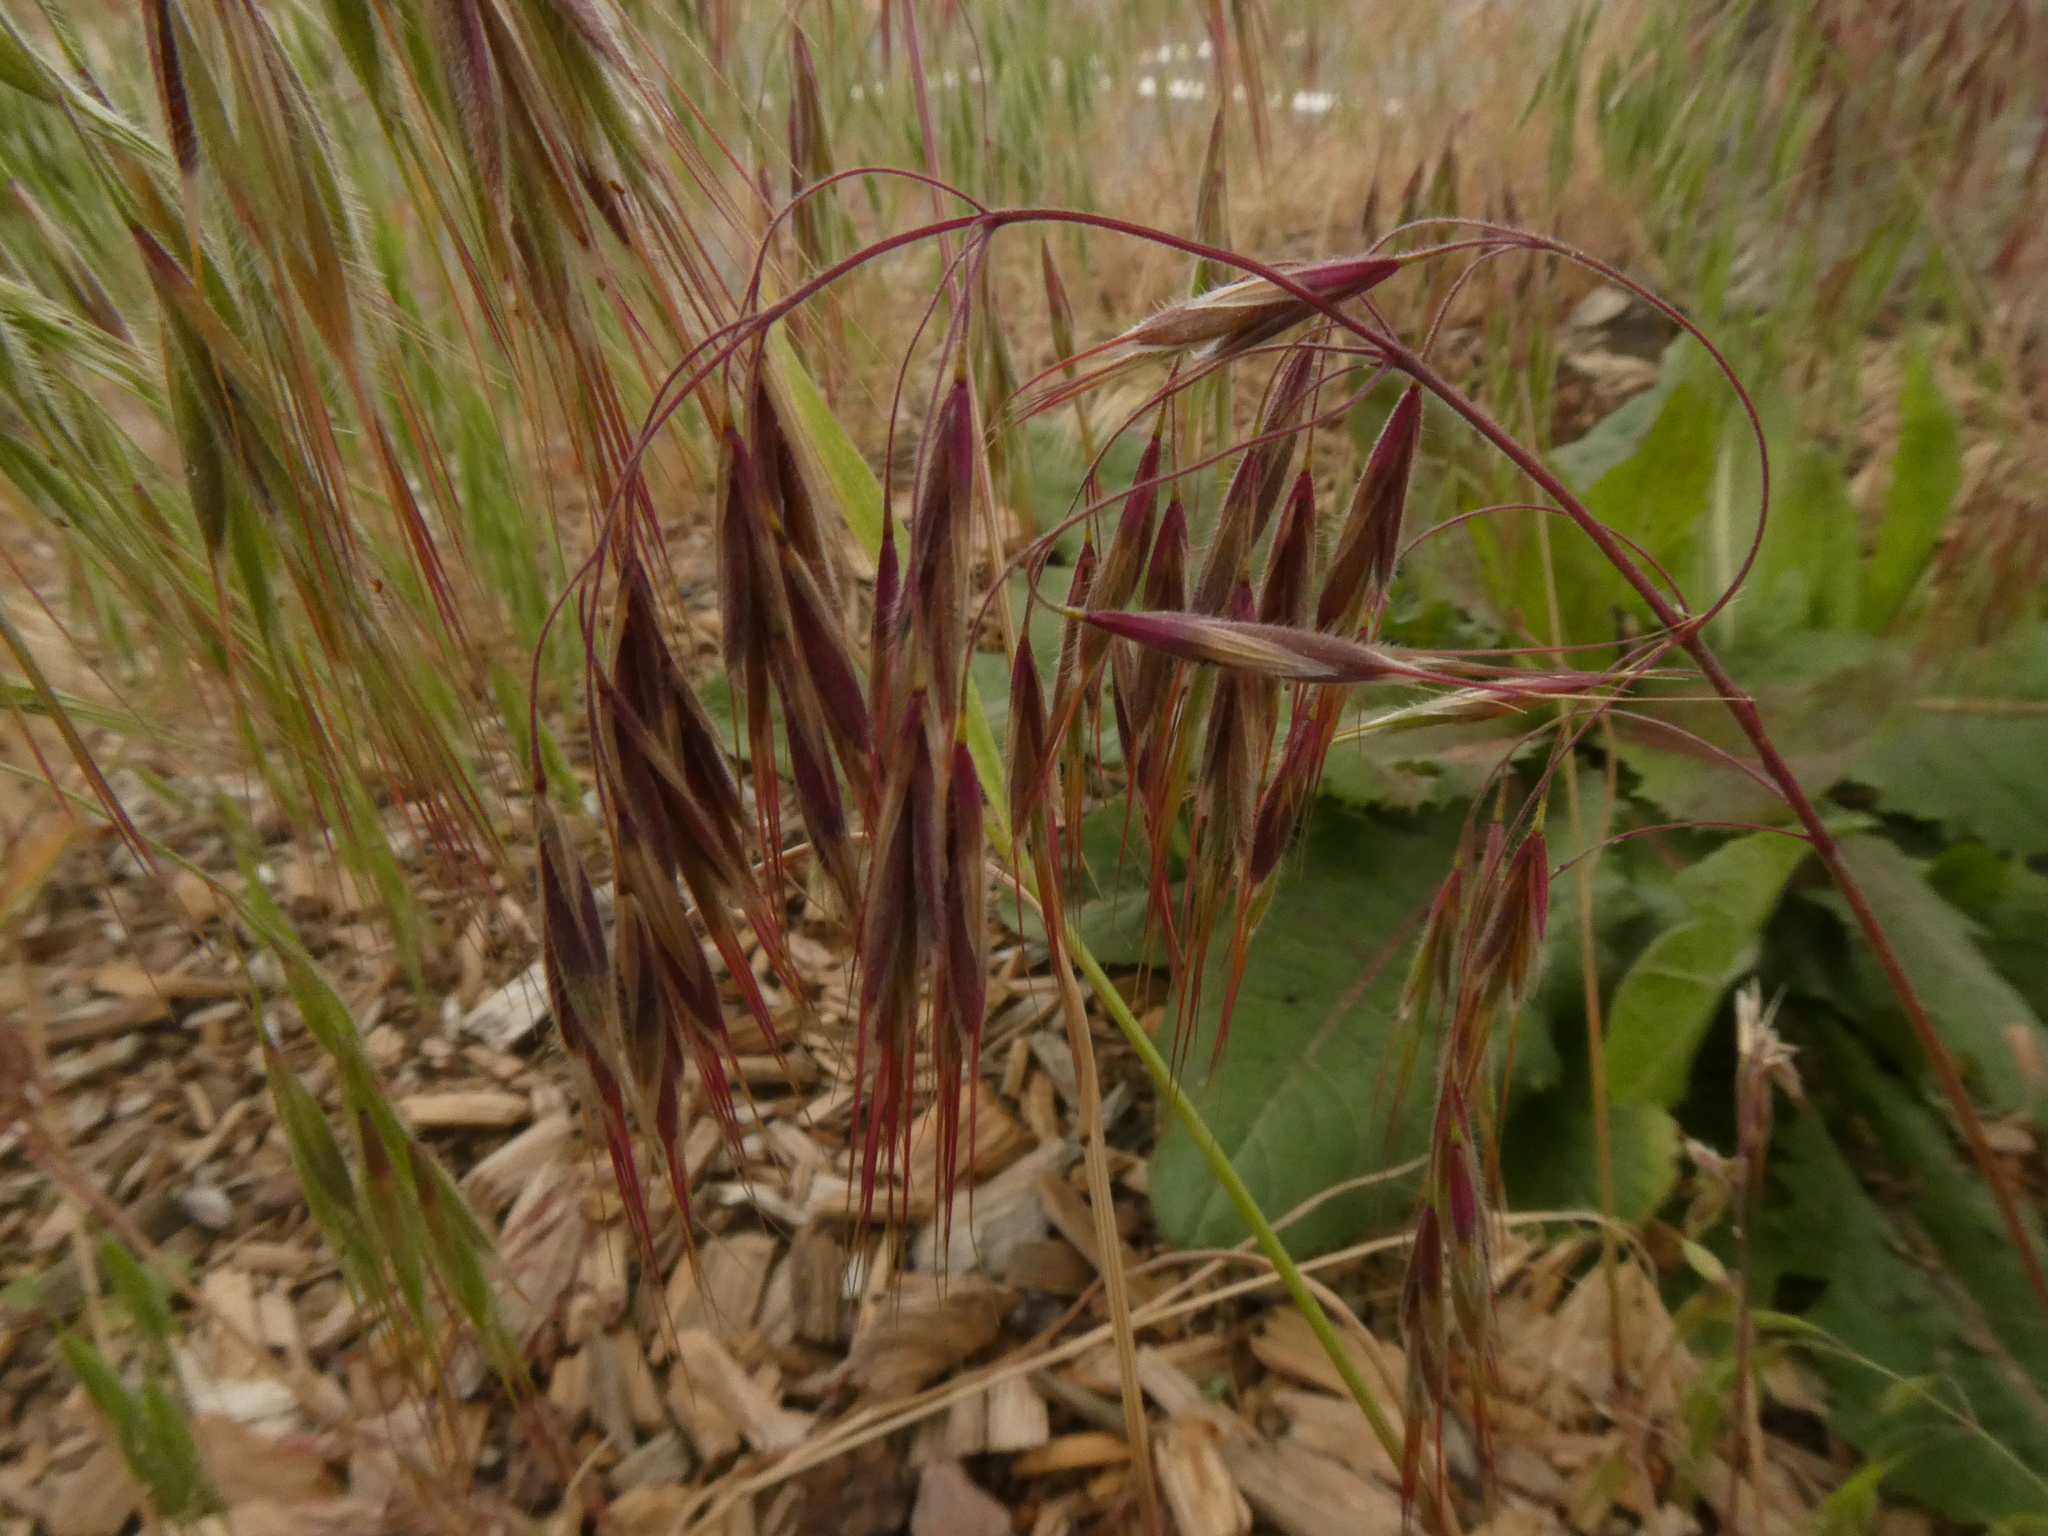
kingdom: Plantae
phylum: Tracheophyta
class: Liliopsida
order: Poales
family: Poaceae
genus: Bromus
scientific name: Bromus tectorum
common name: Cheatgrass
